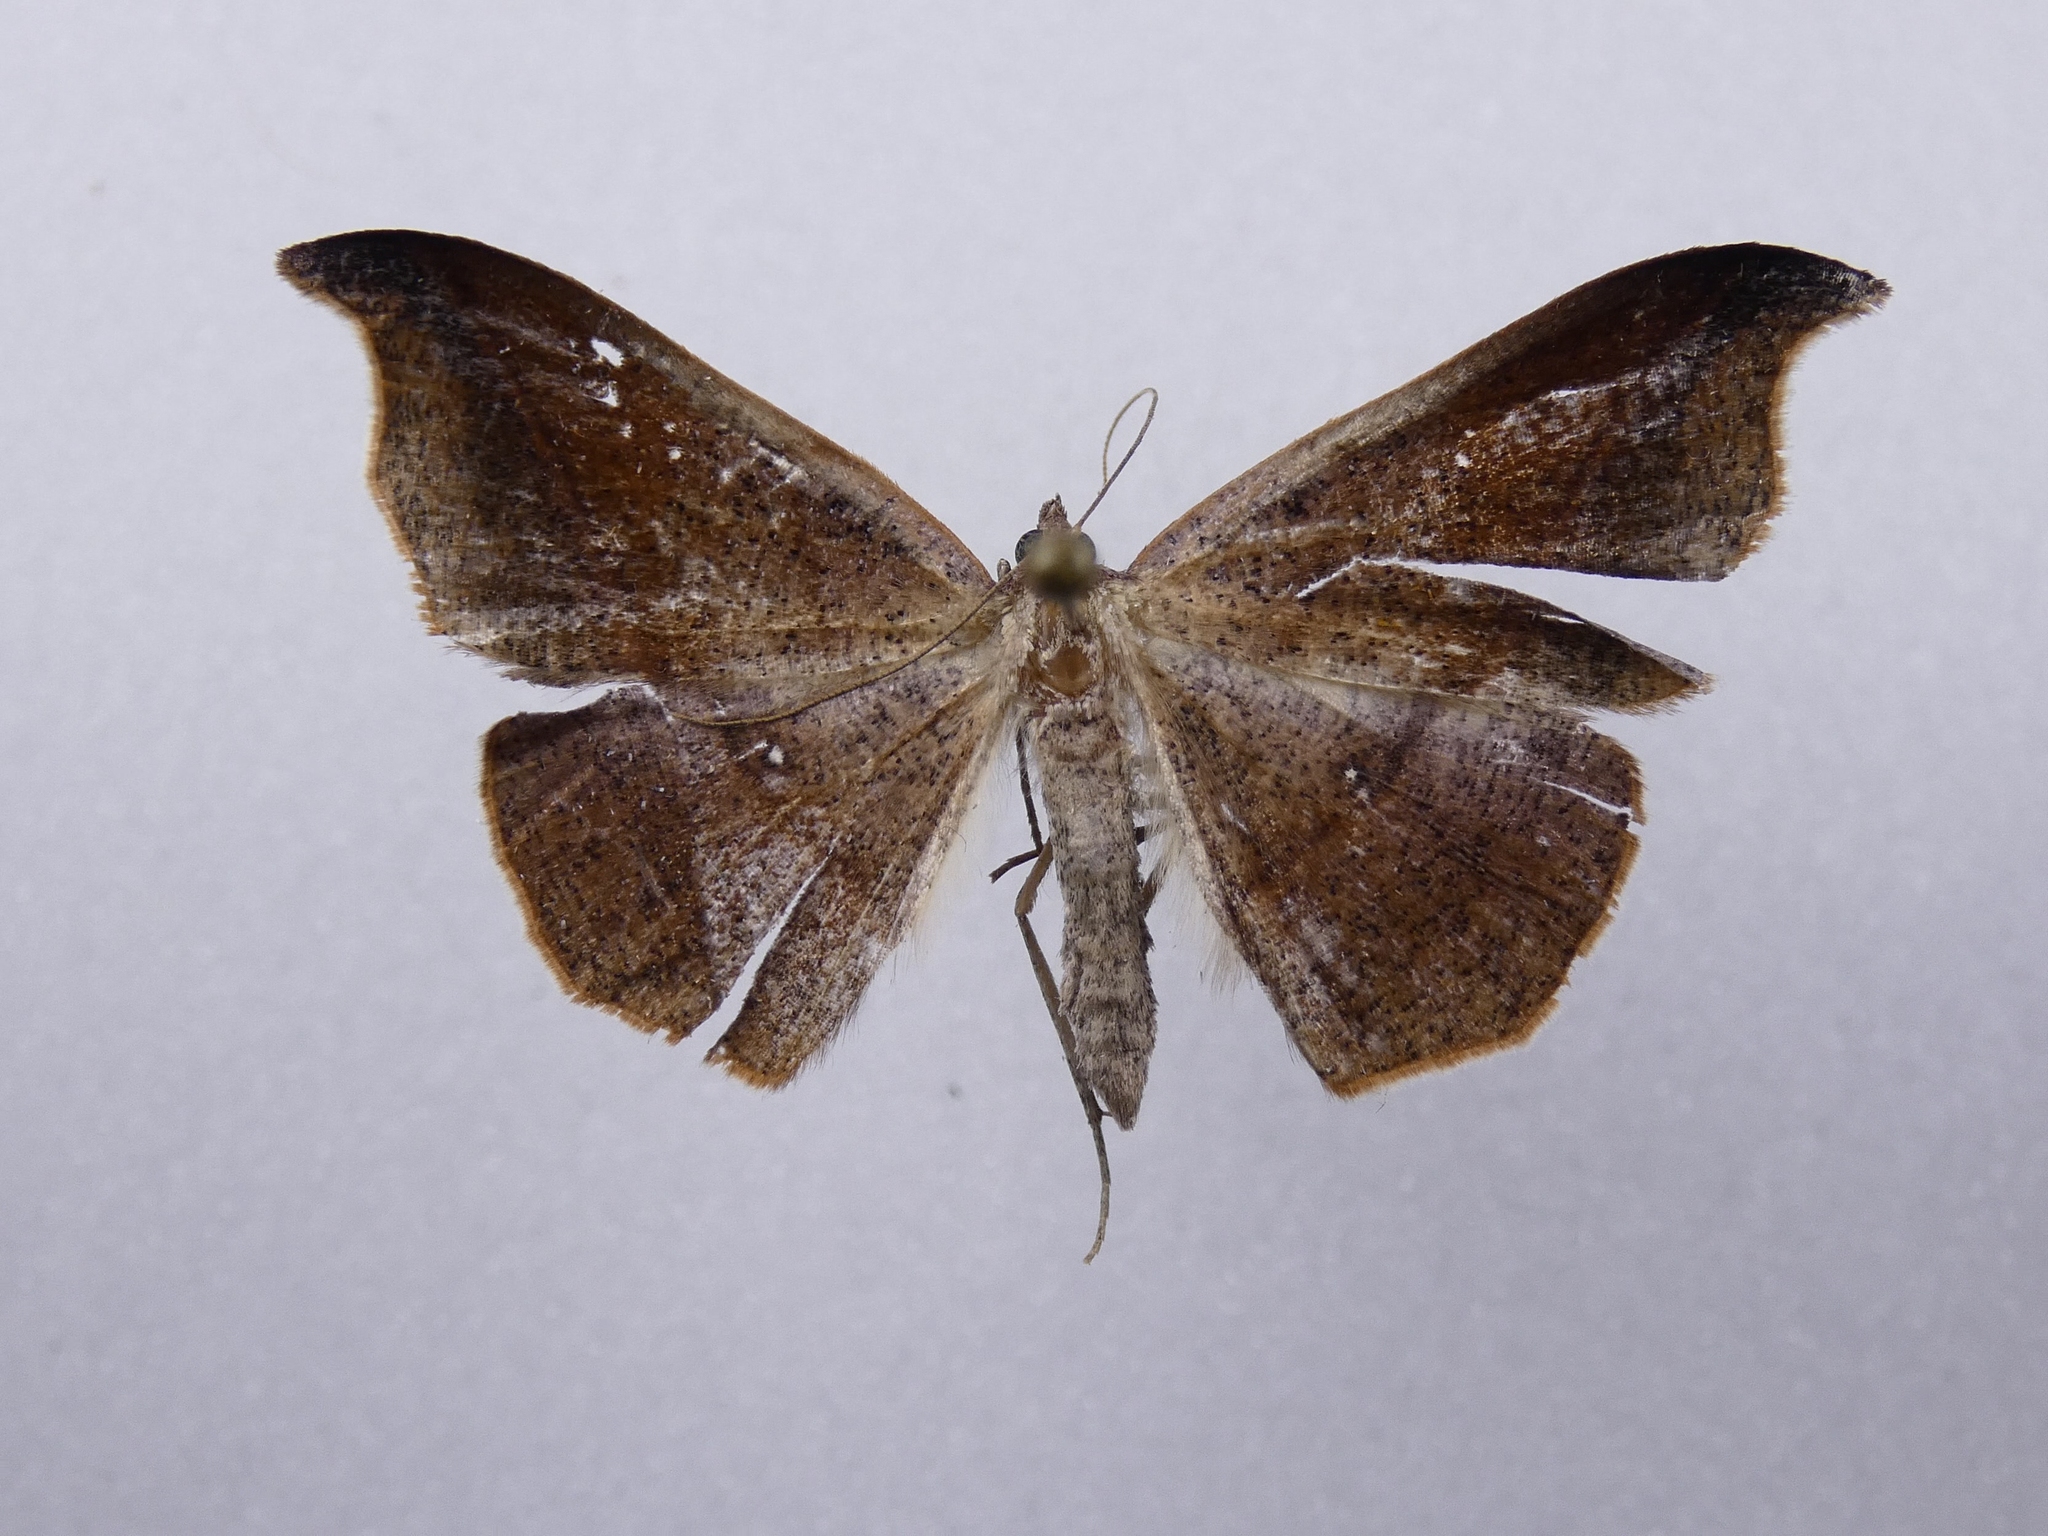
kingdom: Animalia
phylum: Arthropoda
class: Insecta
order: Lepidoptera
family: Geometridae
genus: Sarisa
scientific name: Sarisa muriferata
